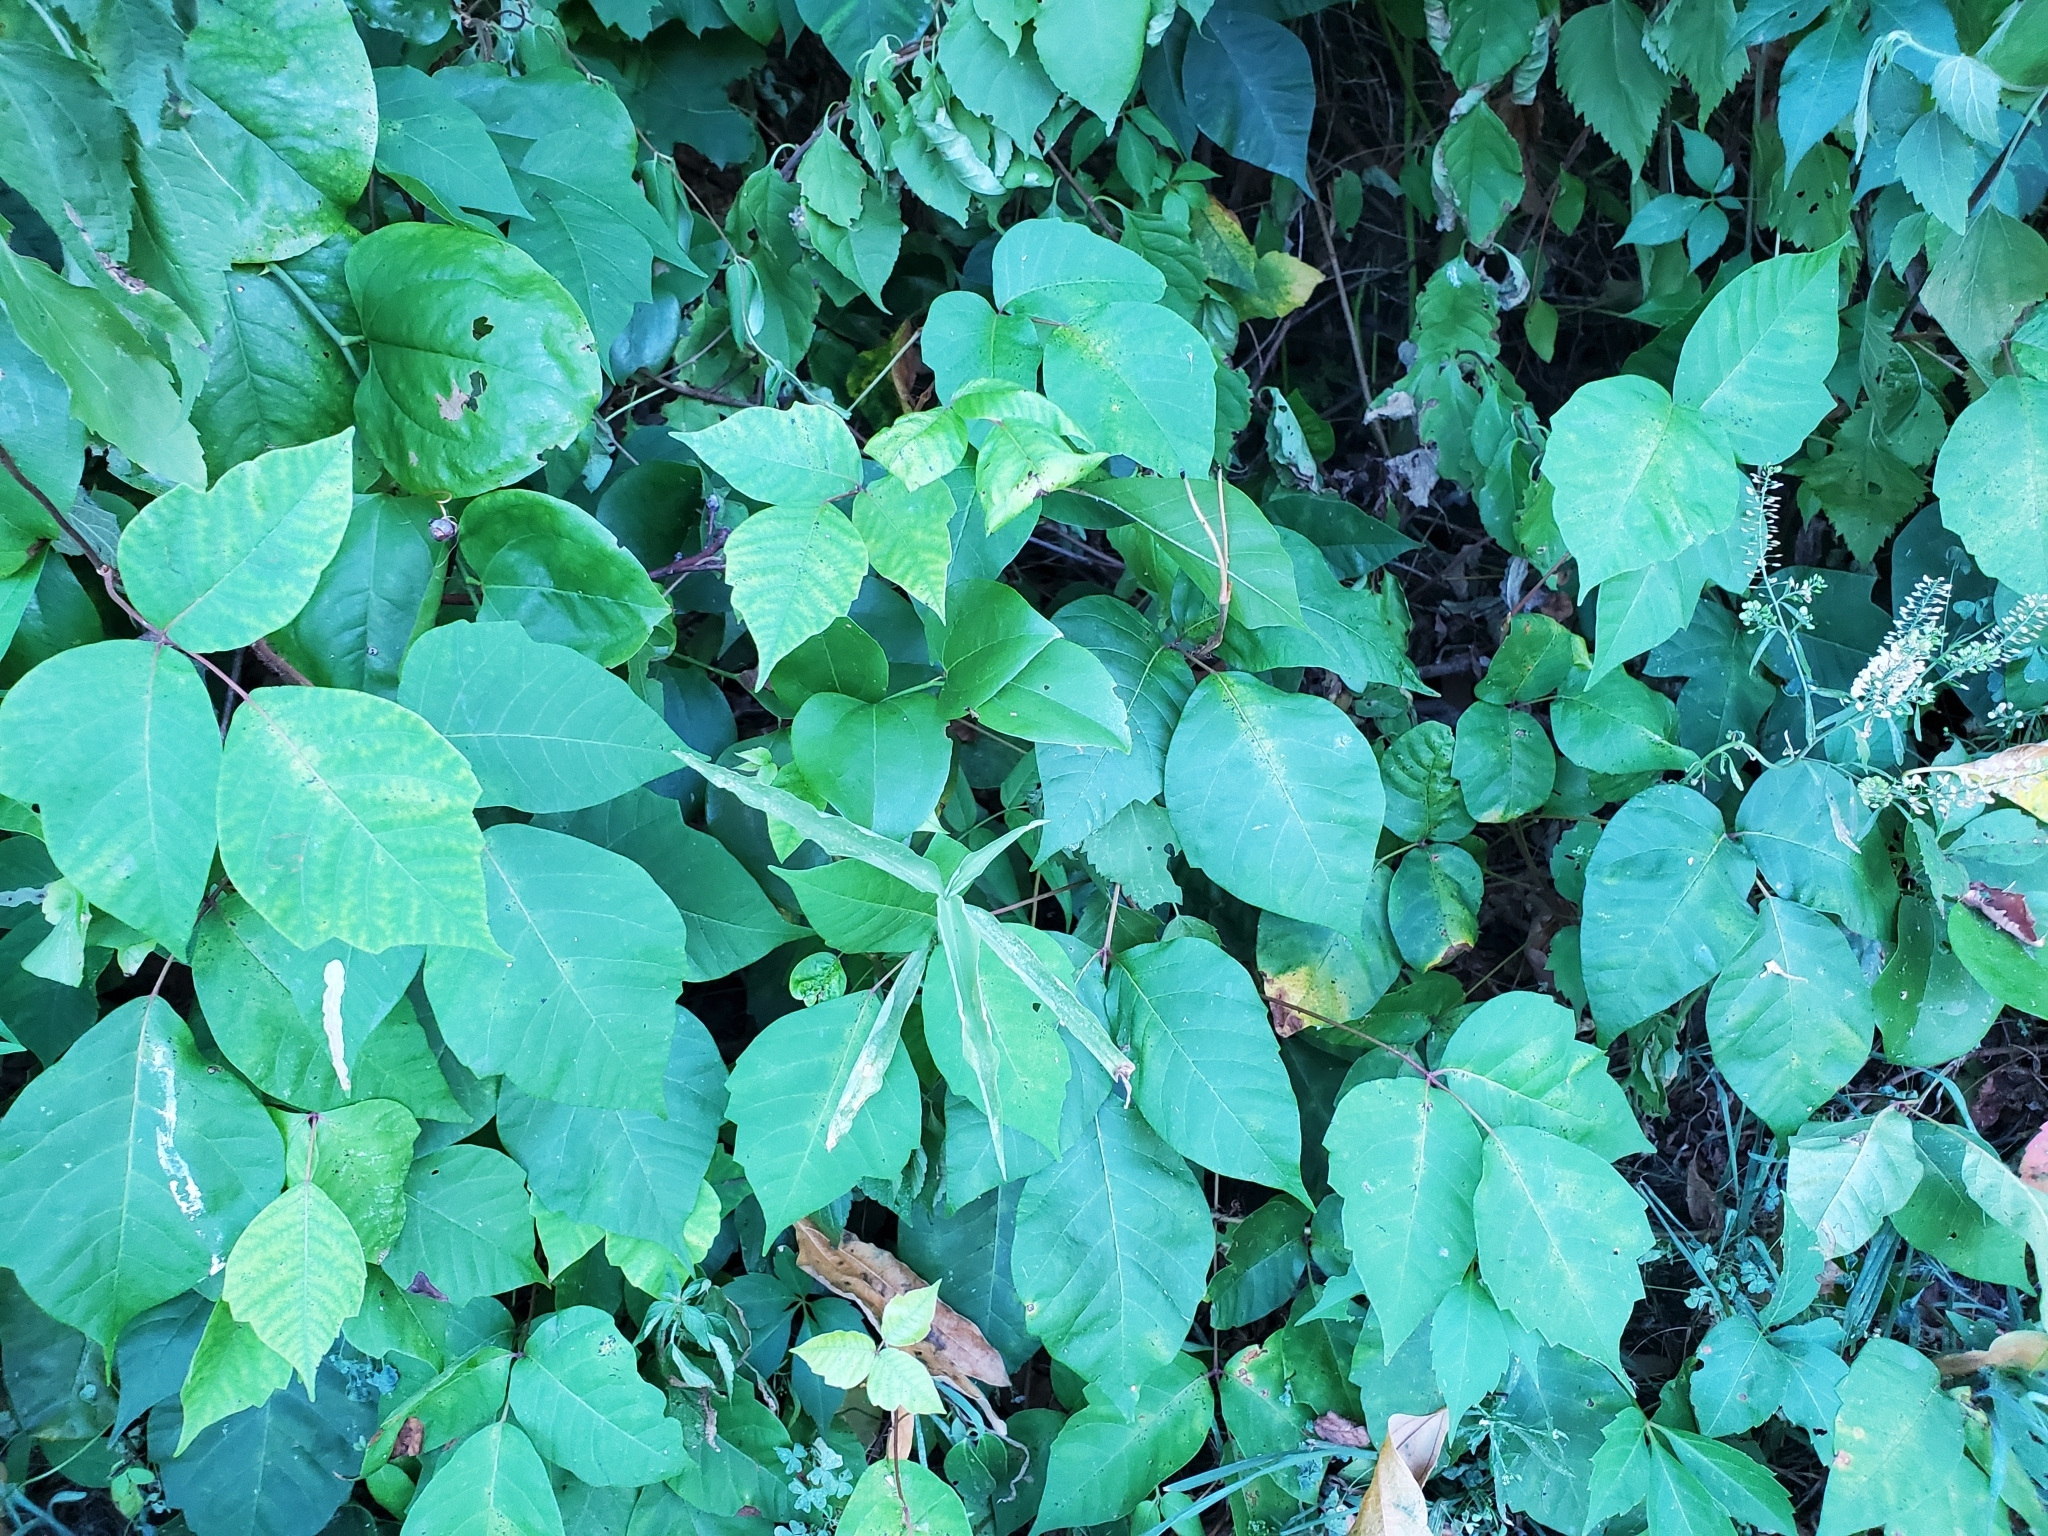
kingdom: Plantae
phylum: Tracheophyta
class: Magnoliopsida
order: Sapindales
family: Anacardiaceae
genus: Toxicodendron
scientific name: Toxicodendron radicans
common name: Poison ivy
